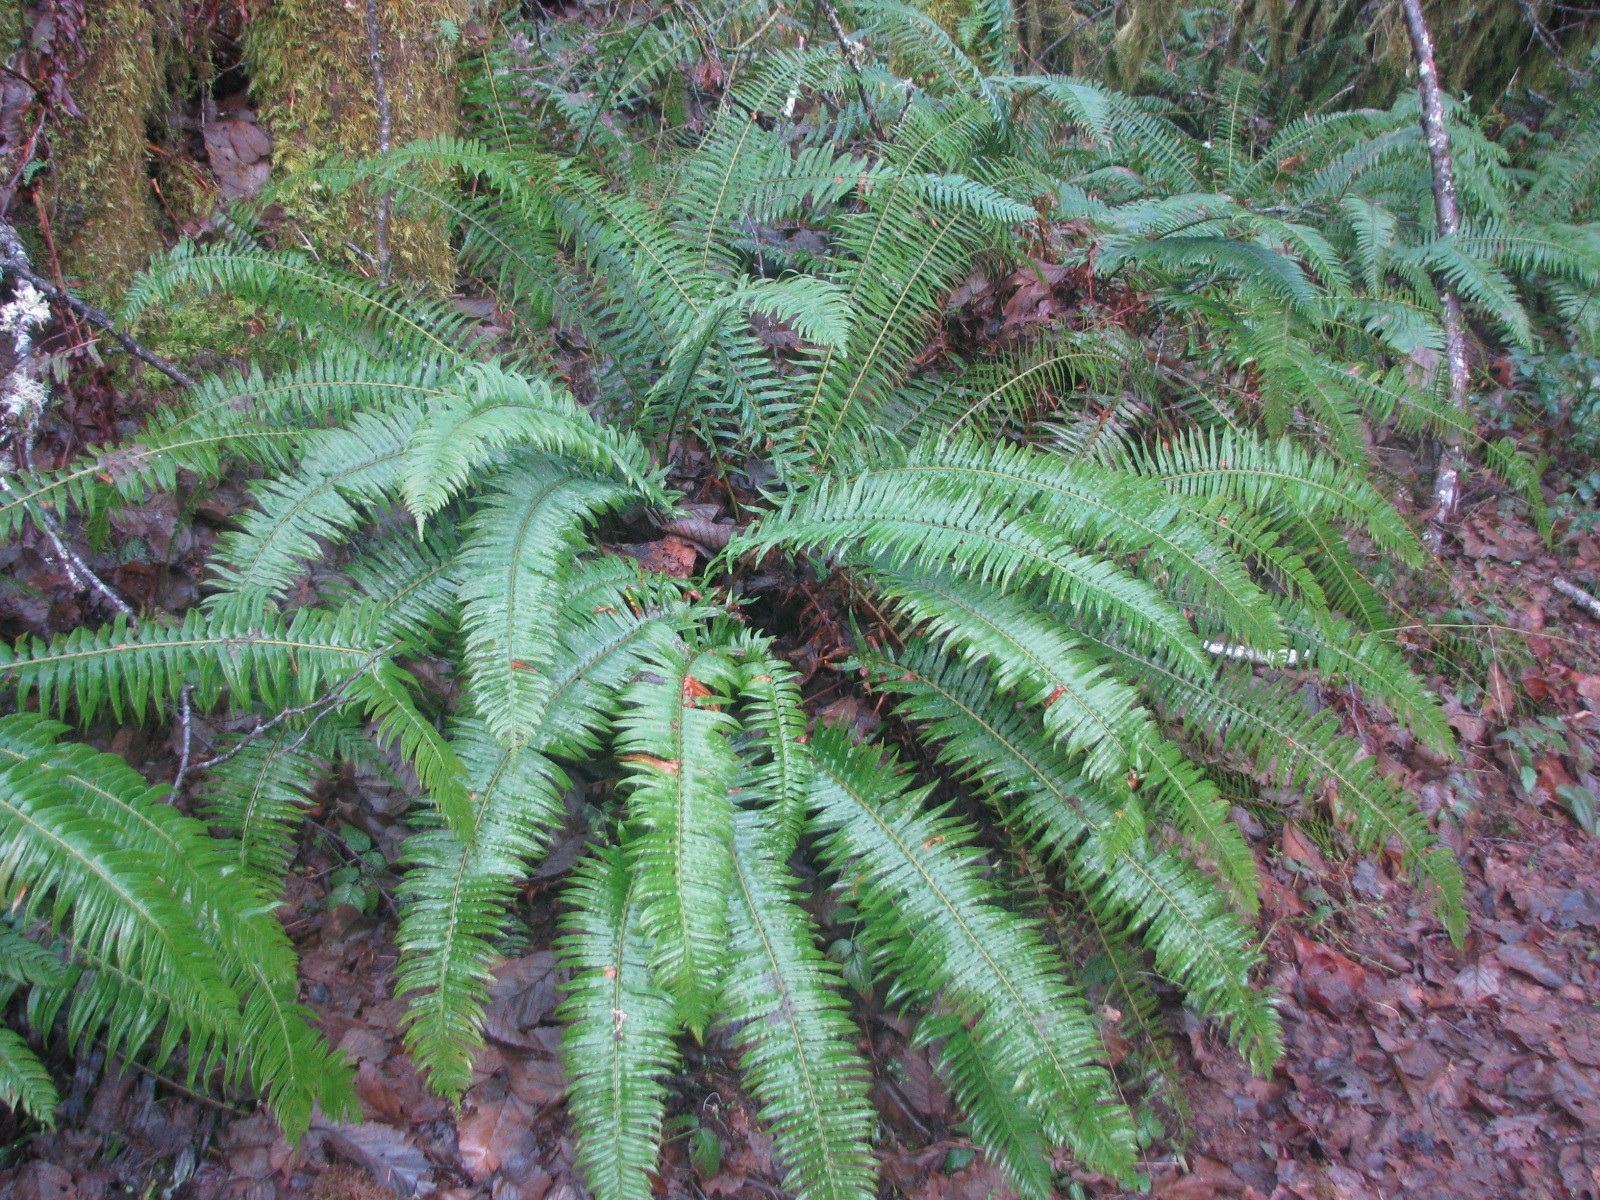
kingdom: Plantae
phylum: Tracheophyta
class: Polypodiopsida
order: Polypodiales
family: Dryopteridaceae
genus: Polystichum
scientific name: Polystichum munitum
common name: Western sword-fern
